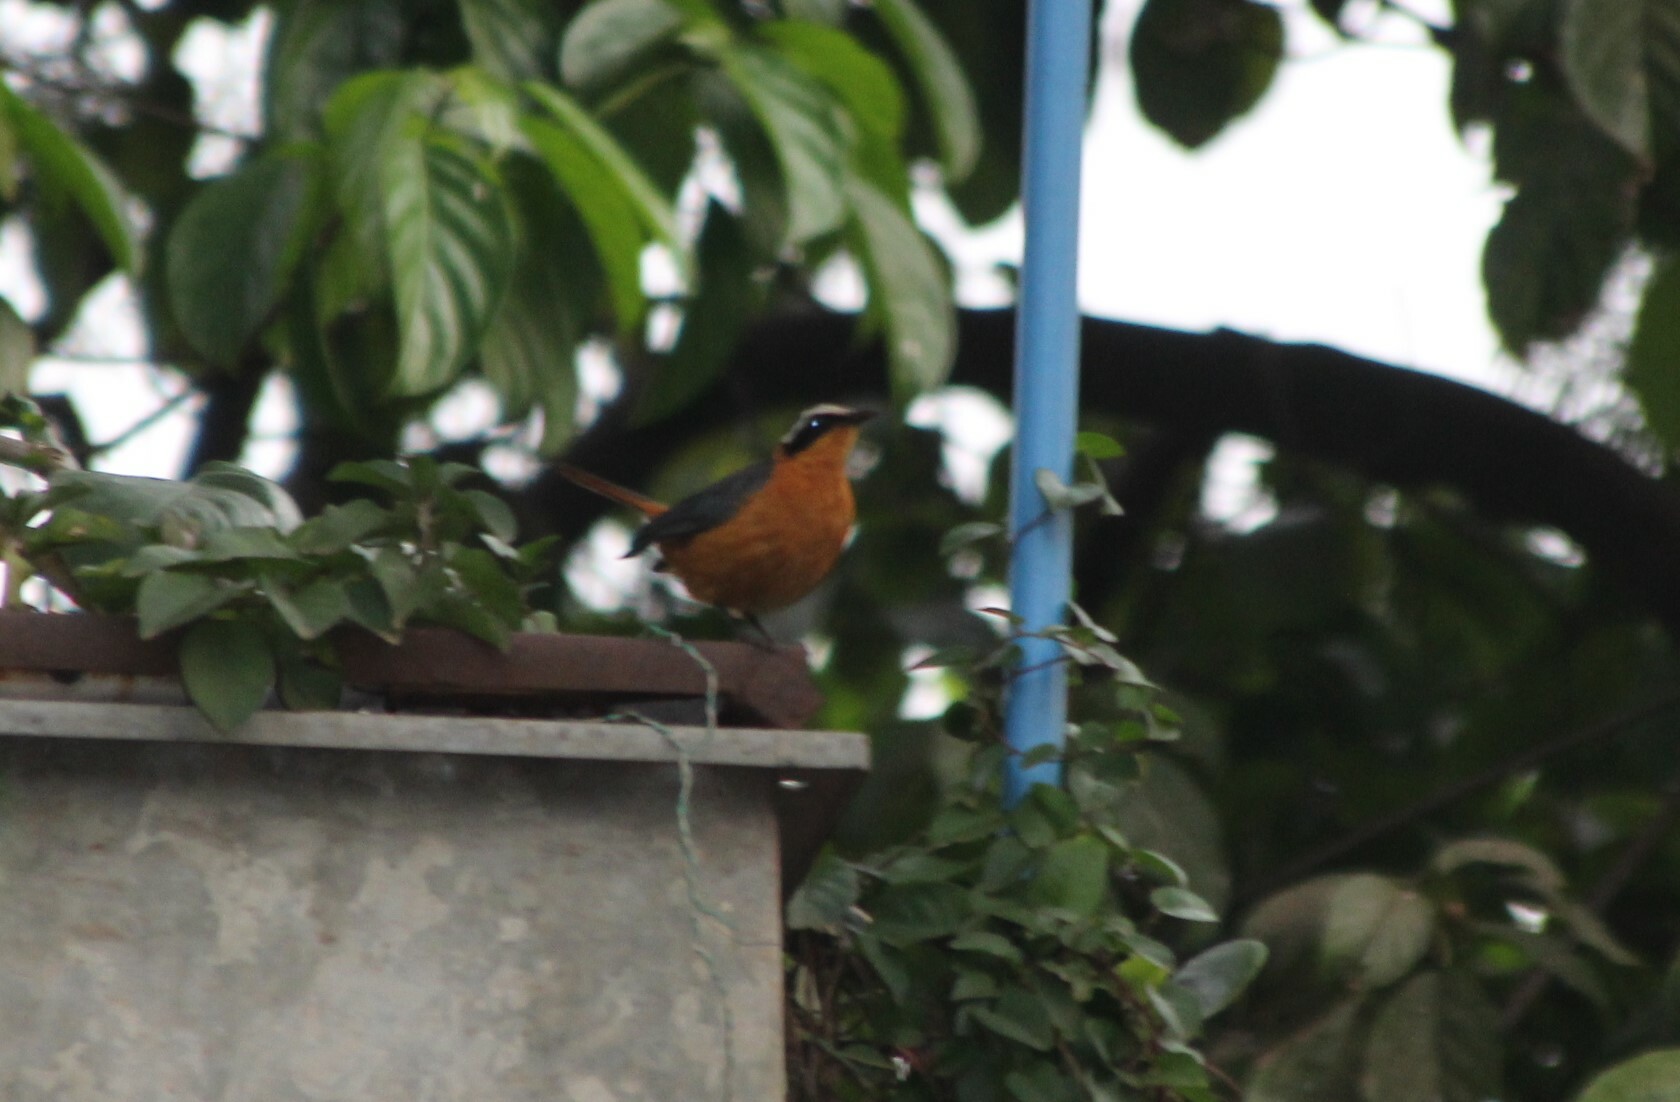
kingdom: Animalia
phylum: Chordata
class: Aves
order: Passeriformes
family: Muscicapidae
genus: Cossypha
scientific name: Cossypha heuglini
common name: White-browed robin-chat
